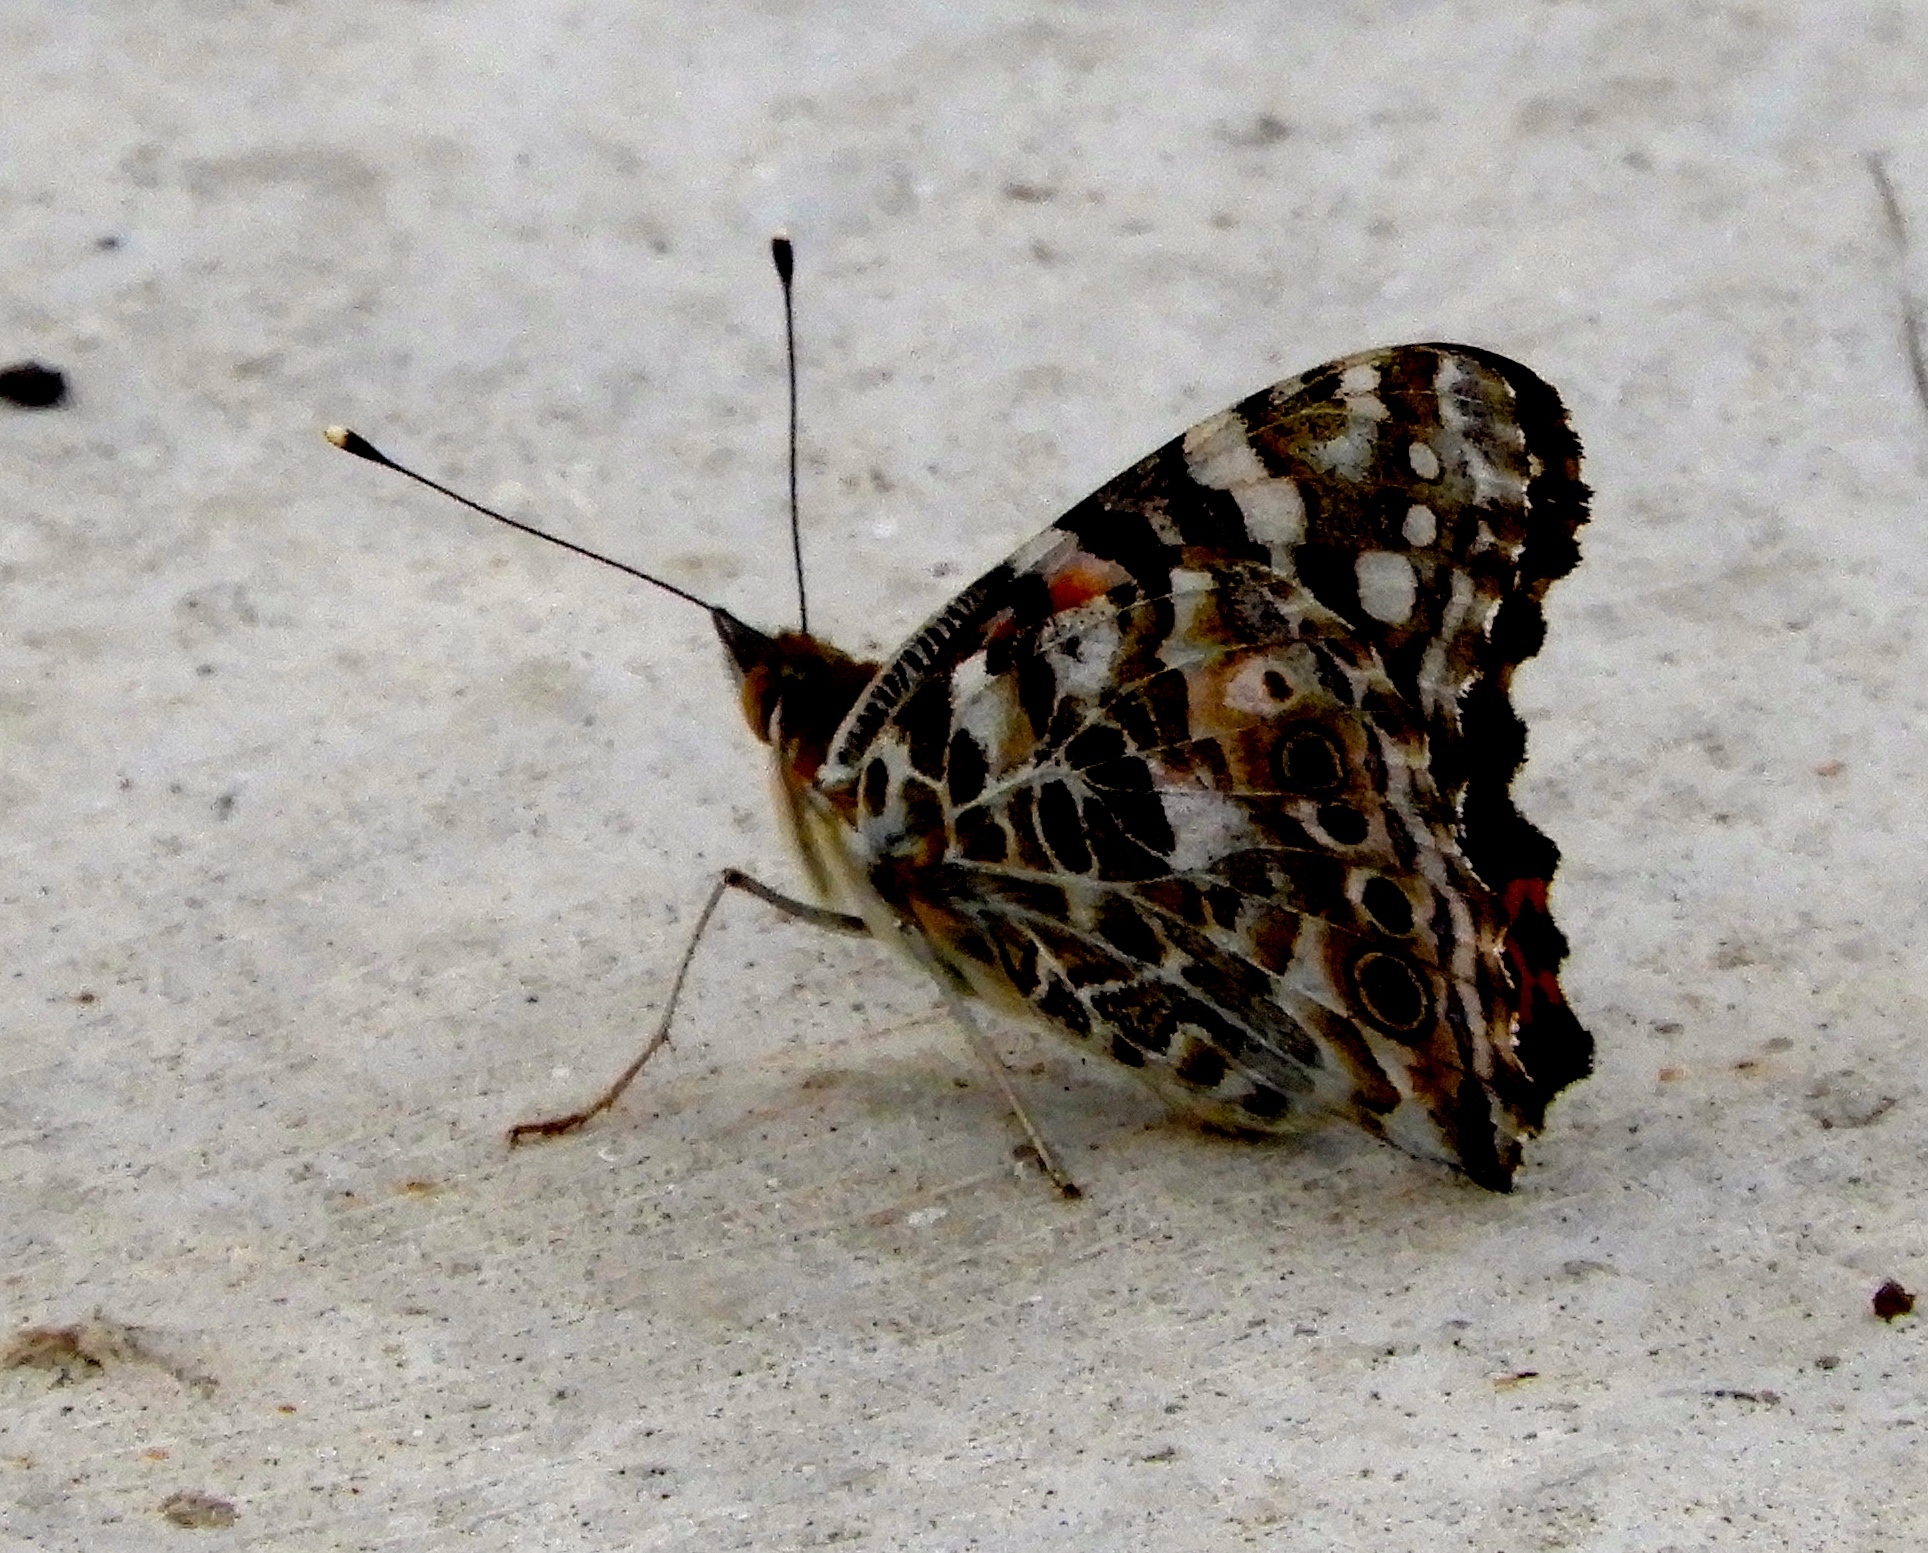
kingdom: Animalia
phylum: Arthropoda
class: Insecta
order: Lepidoptera
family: Nymphalidae
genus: Vanessa
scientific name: Vanessa cardui
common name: Painted lady
